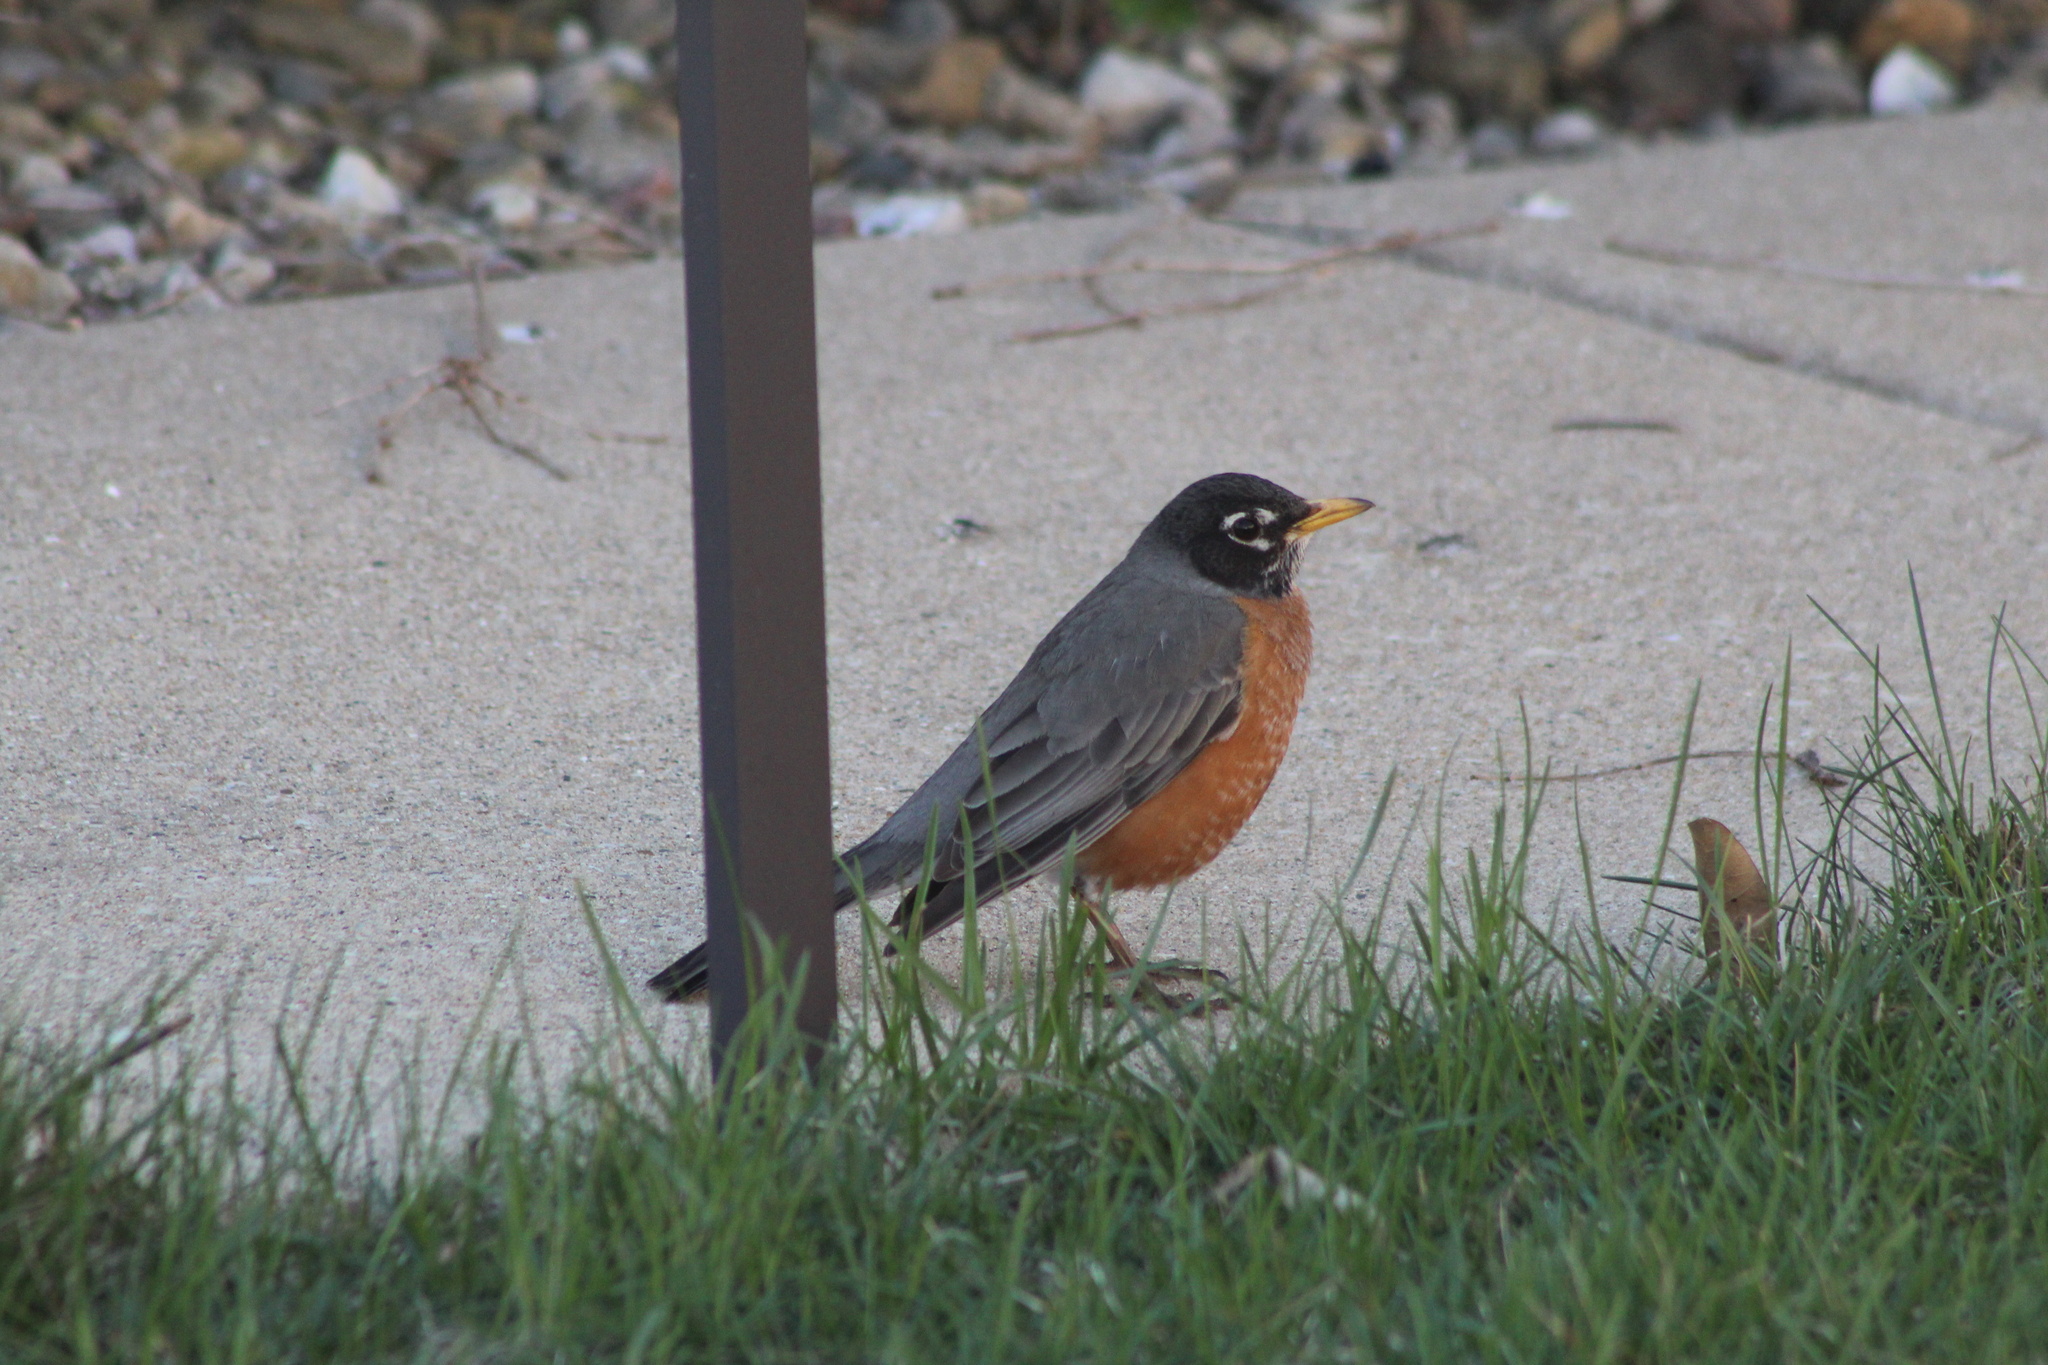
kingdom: Animalia
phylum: Chordata
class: Aves
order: Passeriformes
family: Turdidae
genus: Turdus
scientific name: Turdus migratorius
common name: American robin
